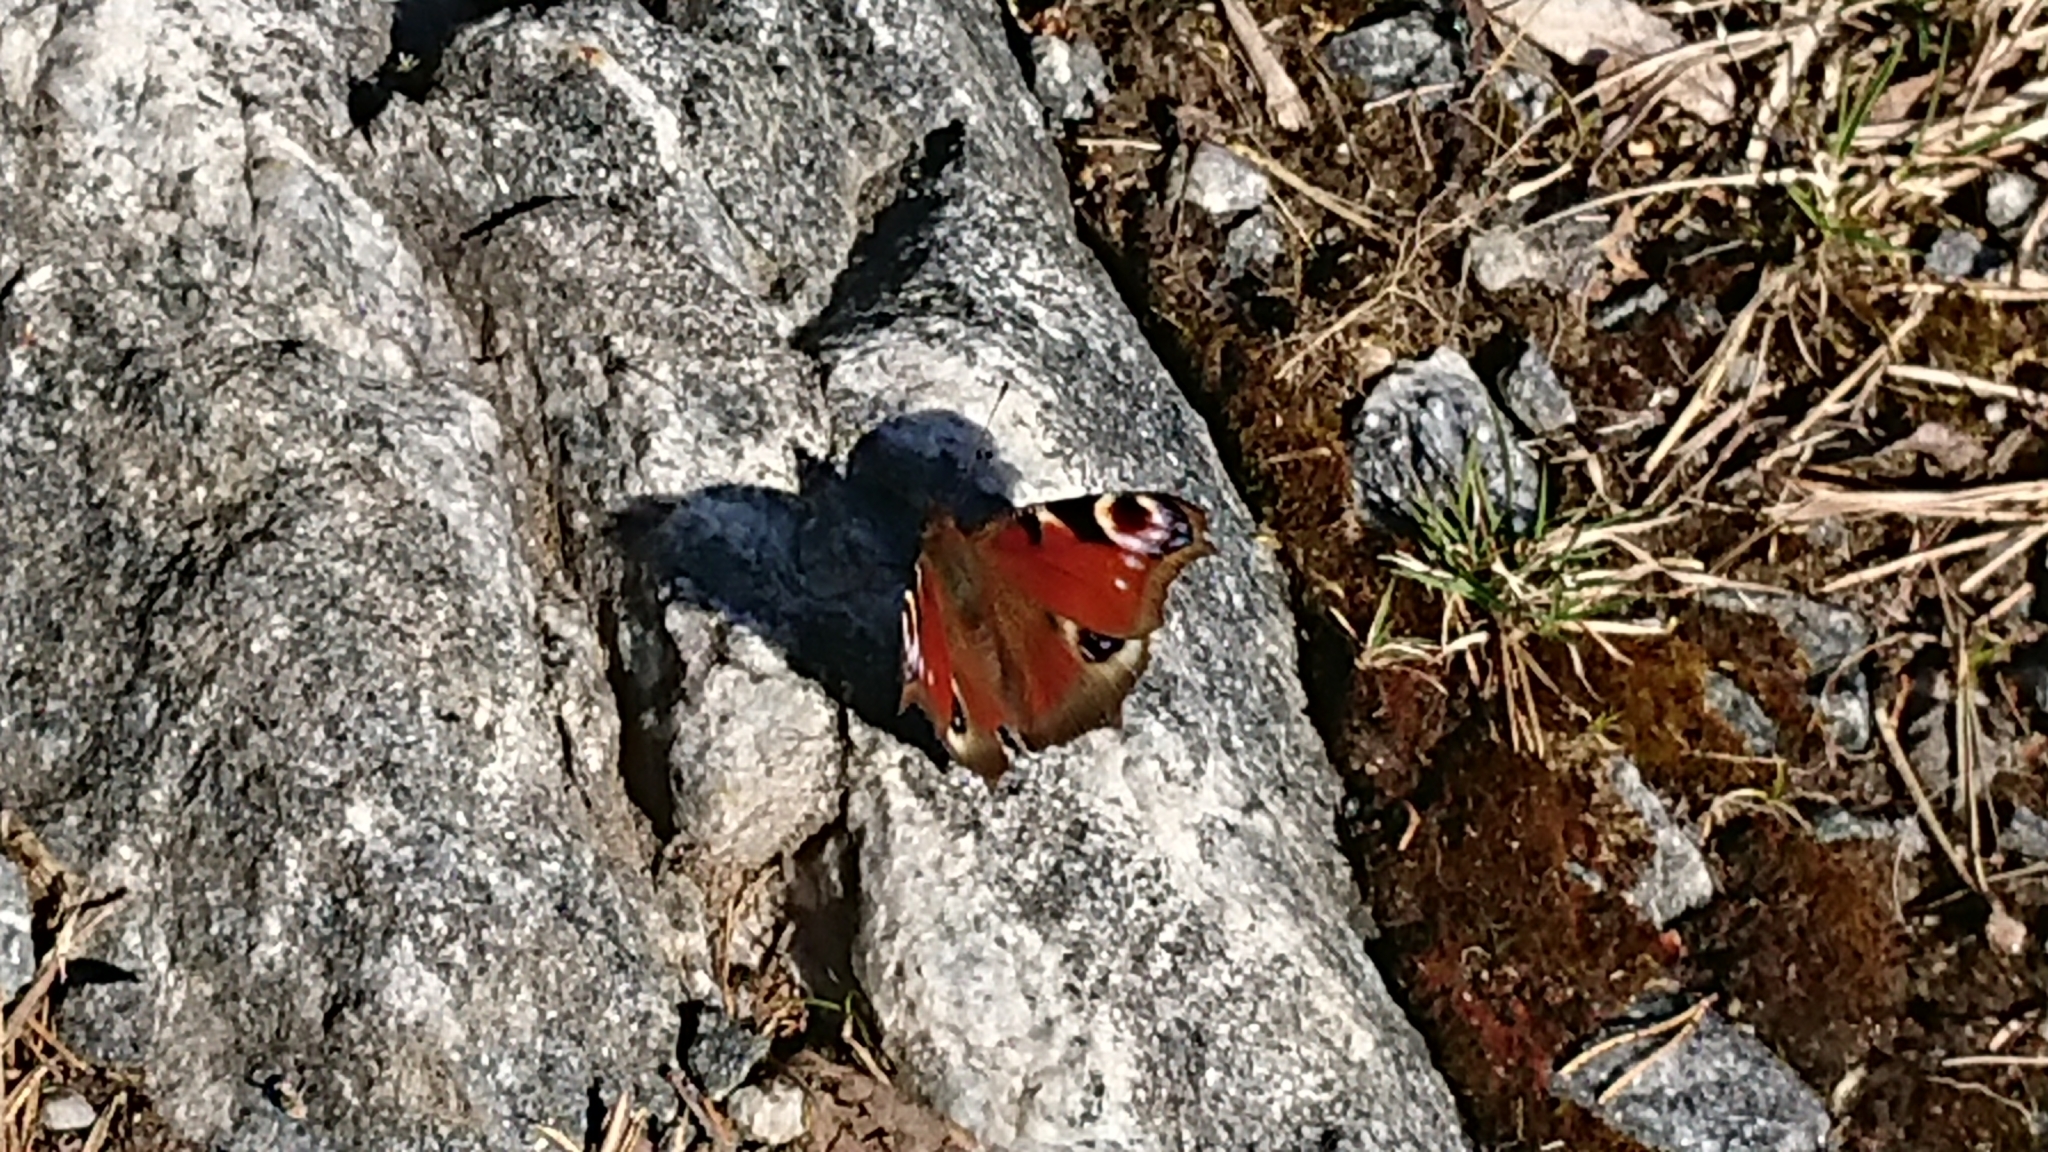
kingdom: Animalia
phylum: Arthropoda
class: Insecta
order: Lepidoptera
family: Nymphalidae
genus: Aglais
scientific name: Aglais io
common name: Peacock
